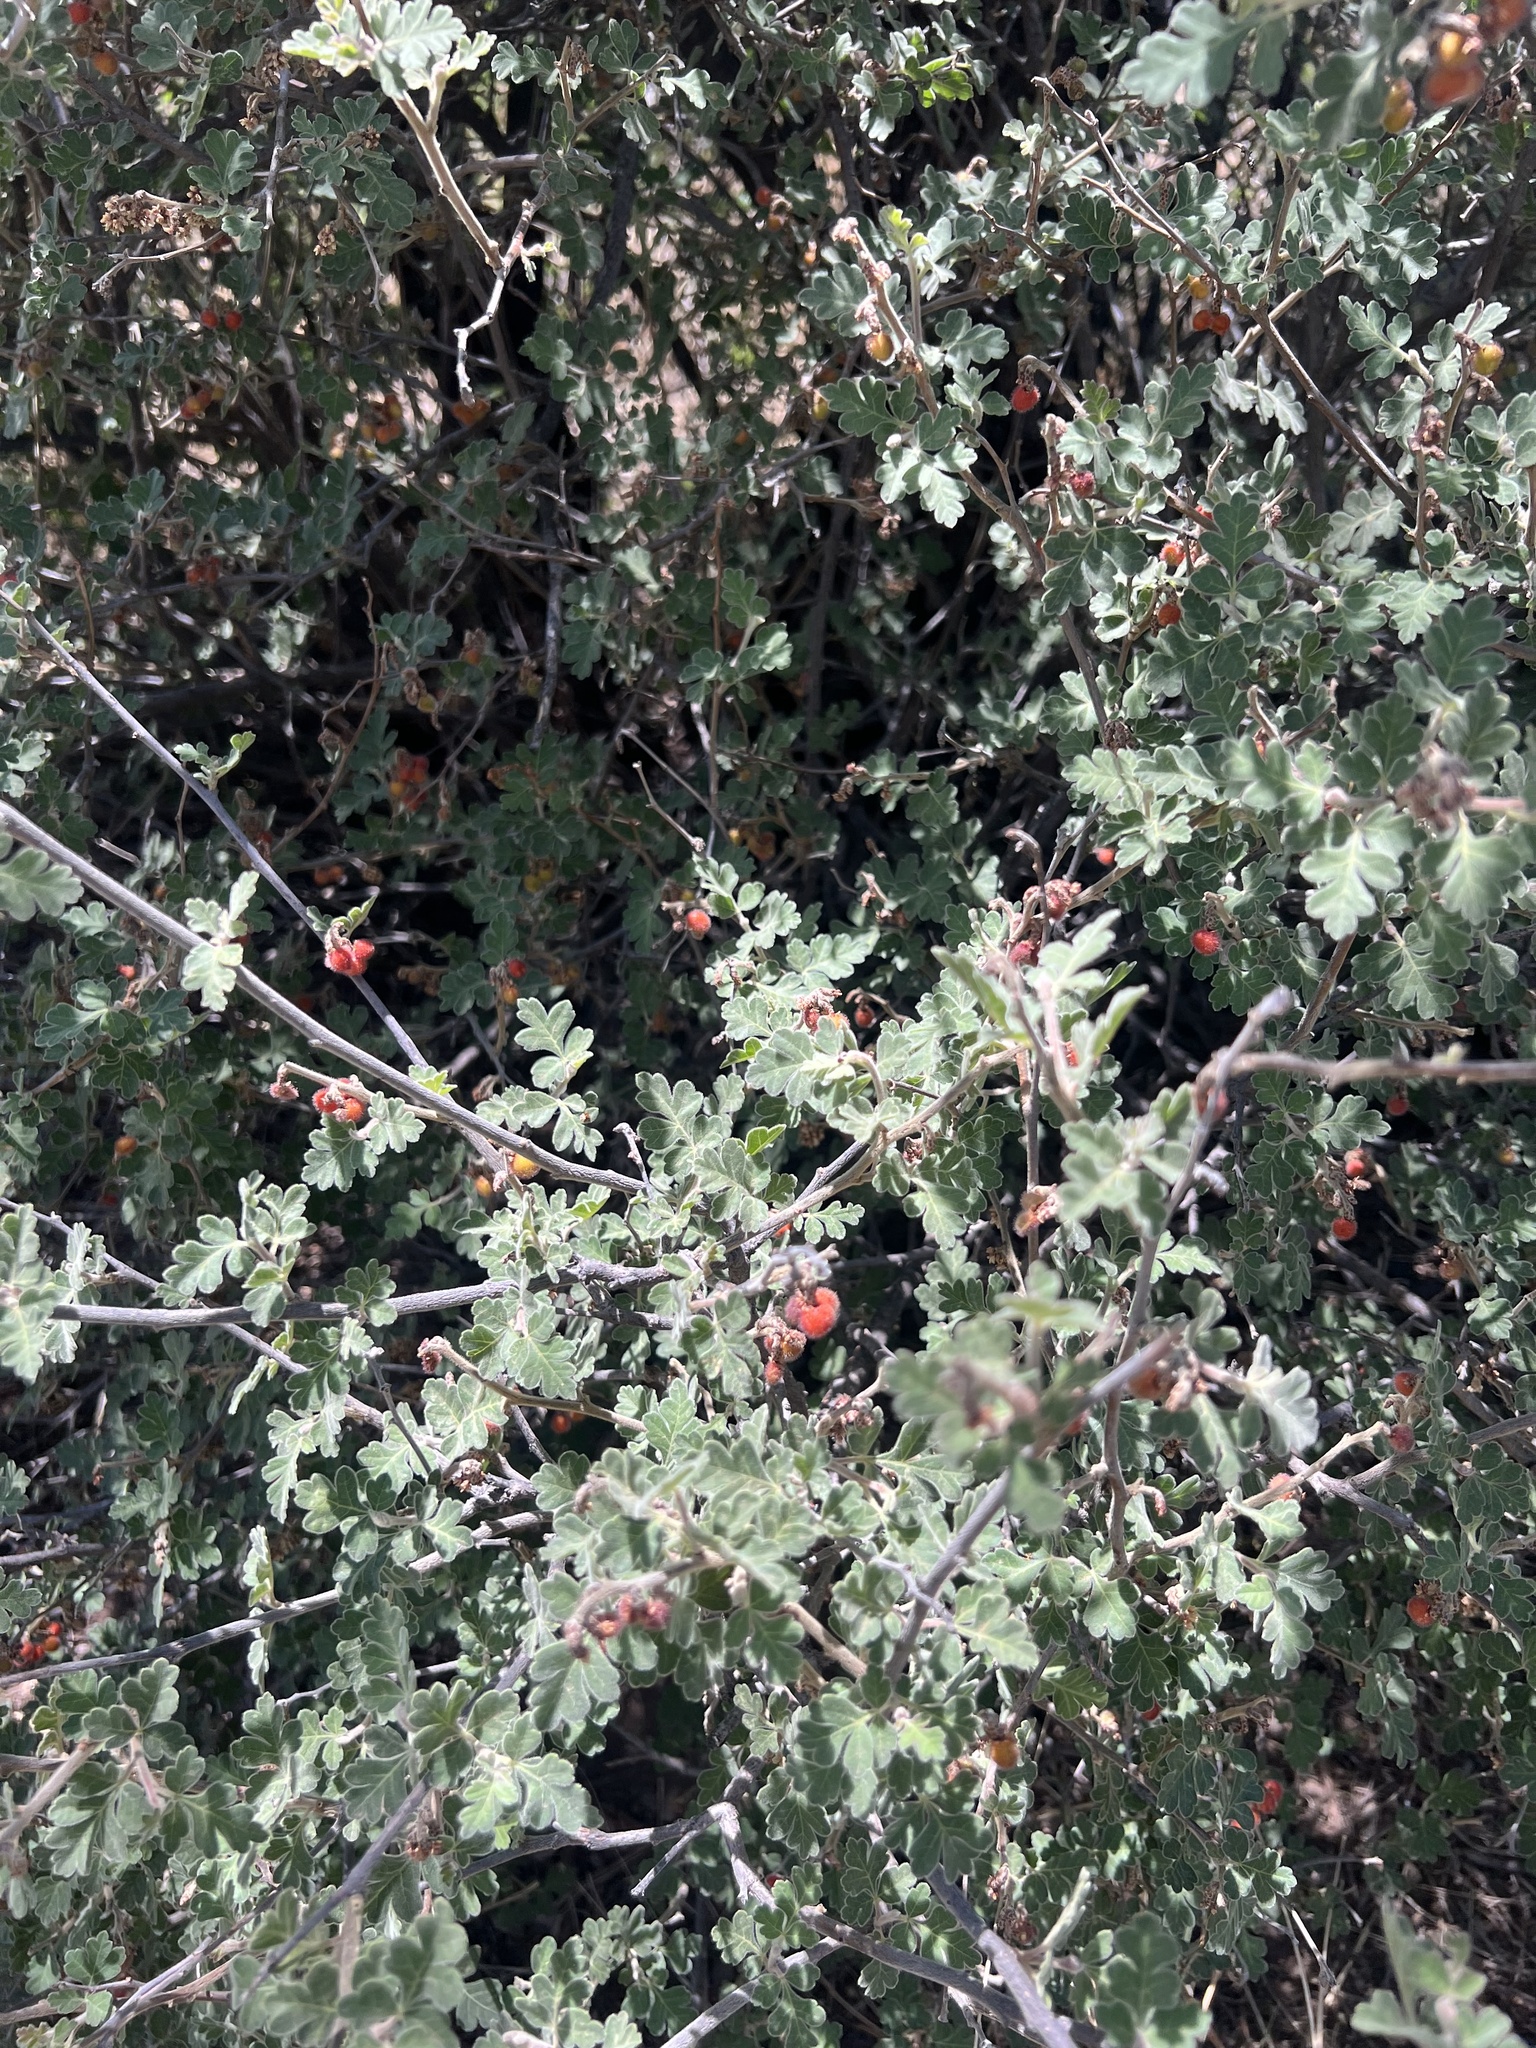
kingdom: Plantae
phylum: Tracheophyta
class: Magnoliopsida
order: Sapindales
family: Anacardiaceae
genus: Rhus
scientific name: Rhus microphylla
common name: Desert sumac
